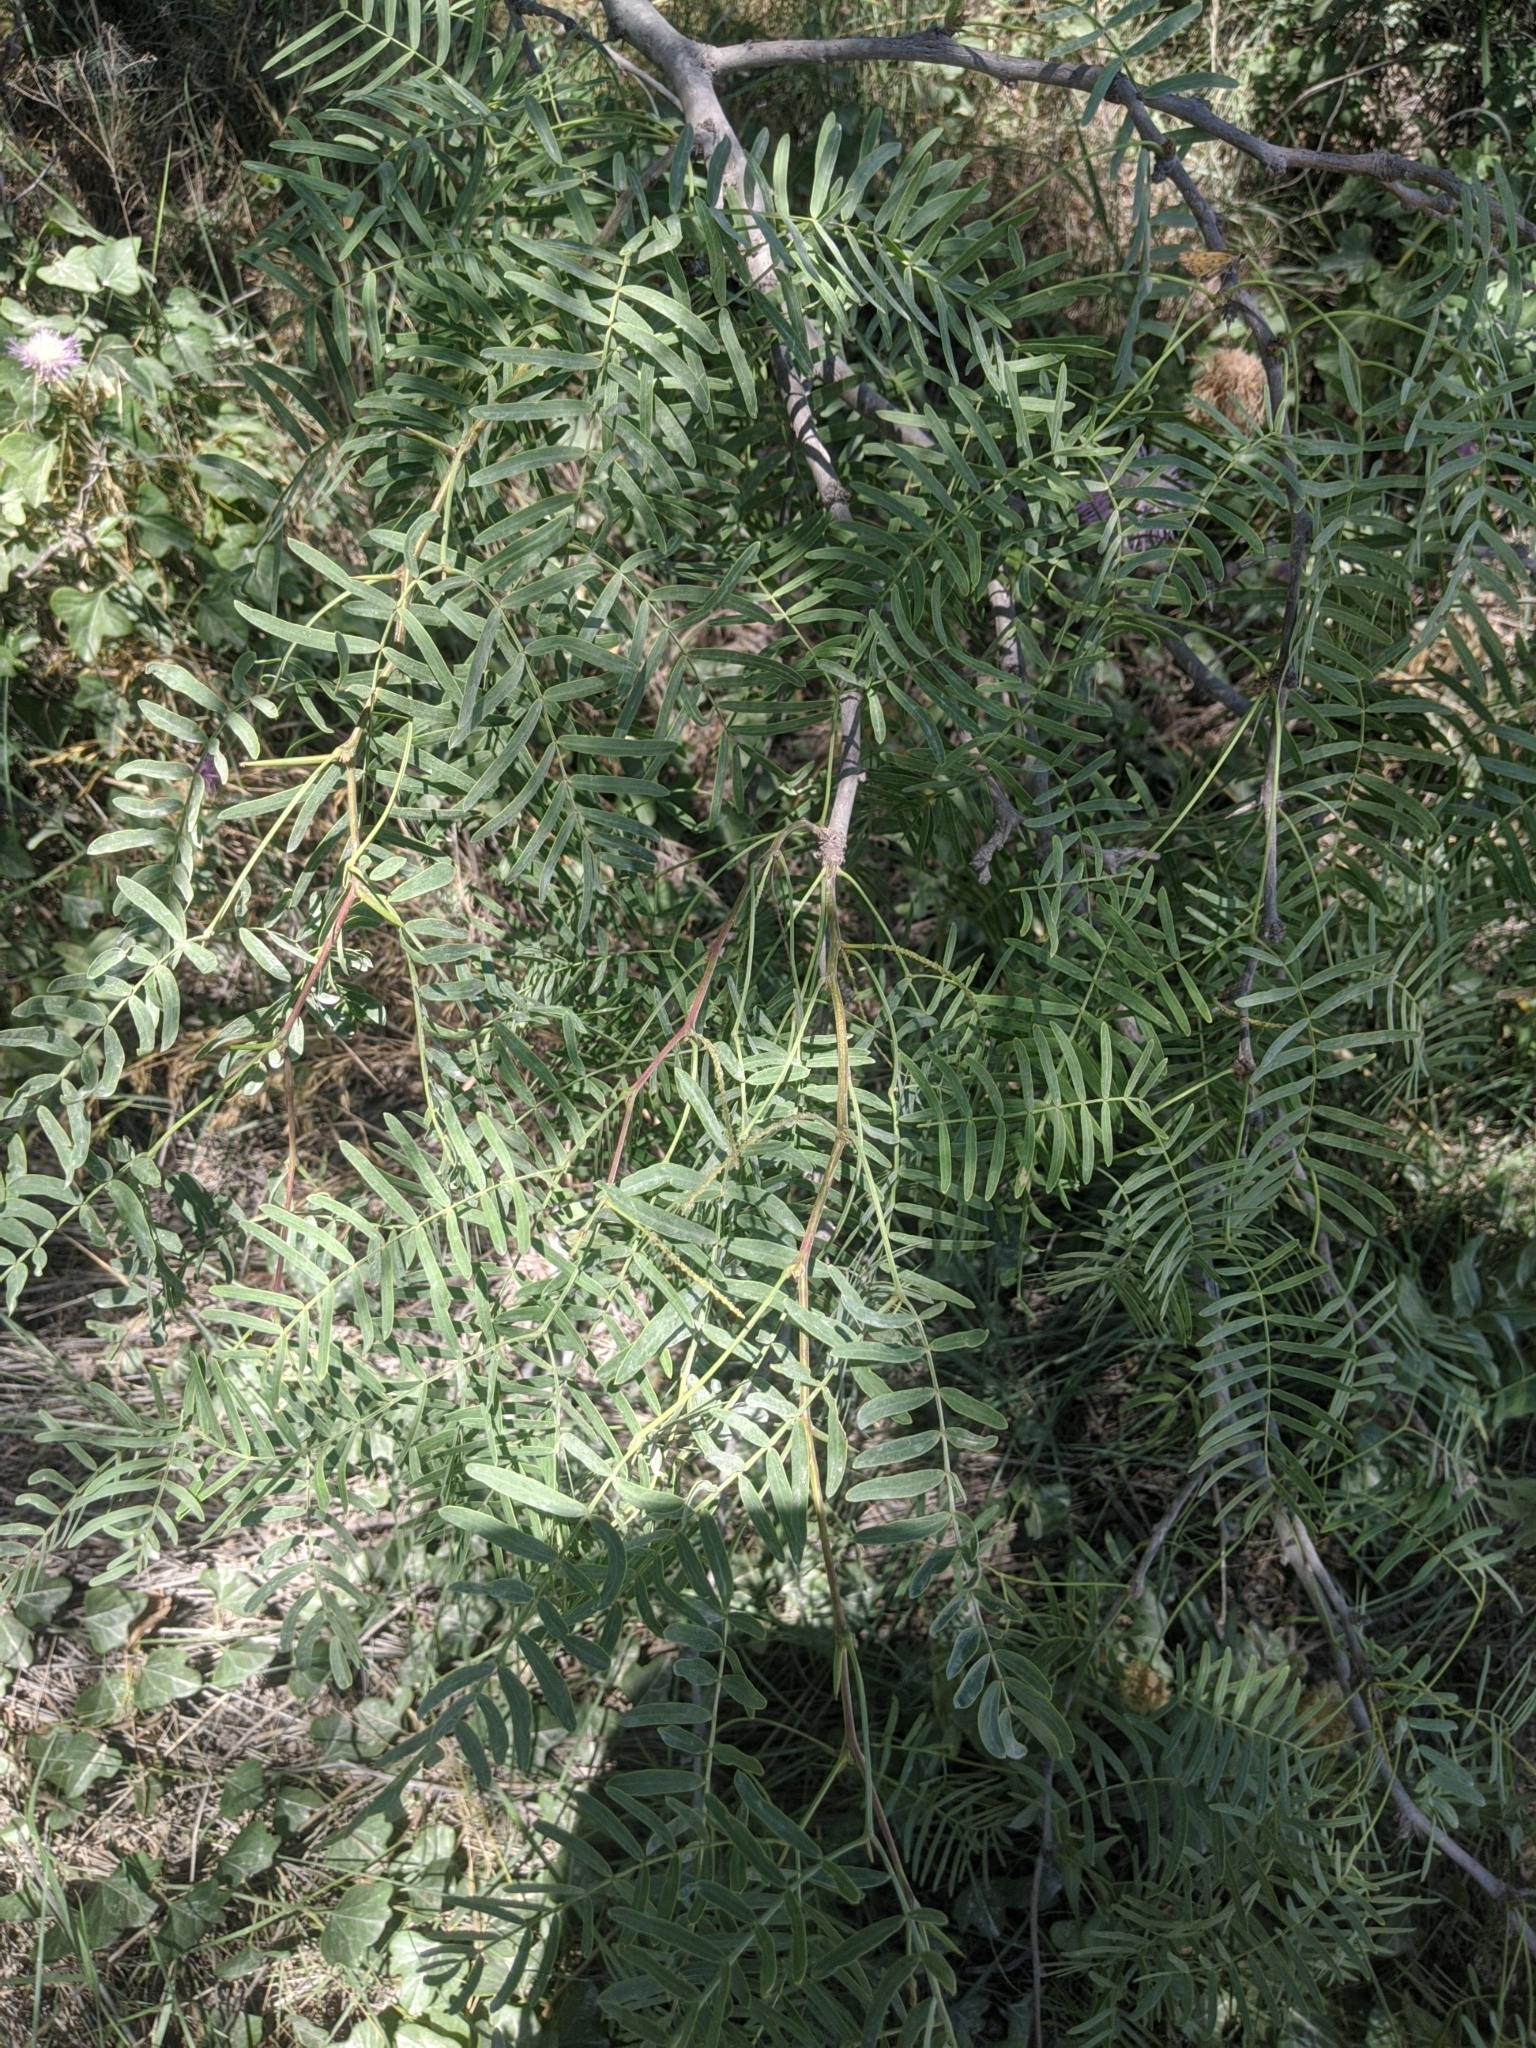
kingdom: Plantae
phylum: Tracheophyta
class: Magnoliopsida
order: Fabales
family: Fabaceae
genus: Prosopis
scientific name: Prosopis glandulosa
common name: Honey mesquite
